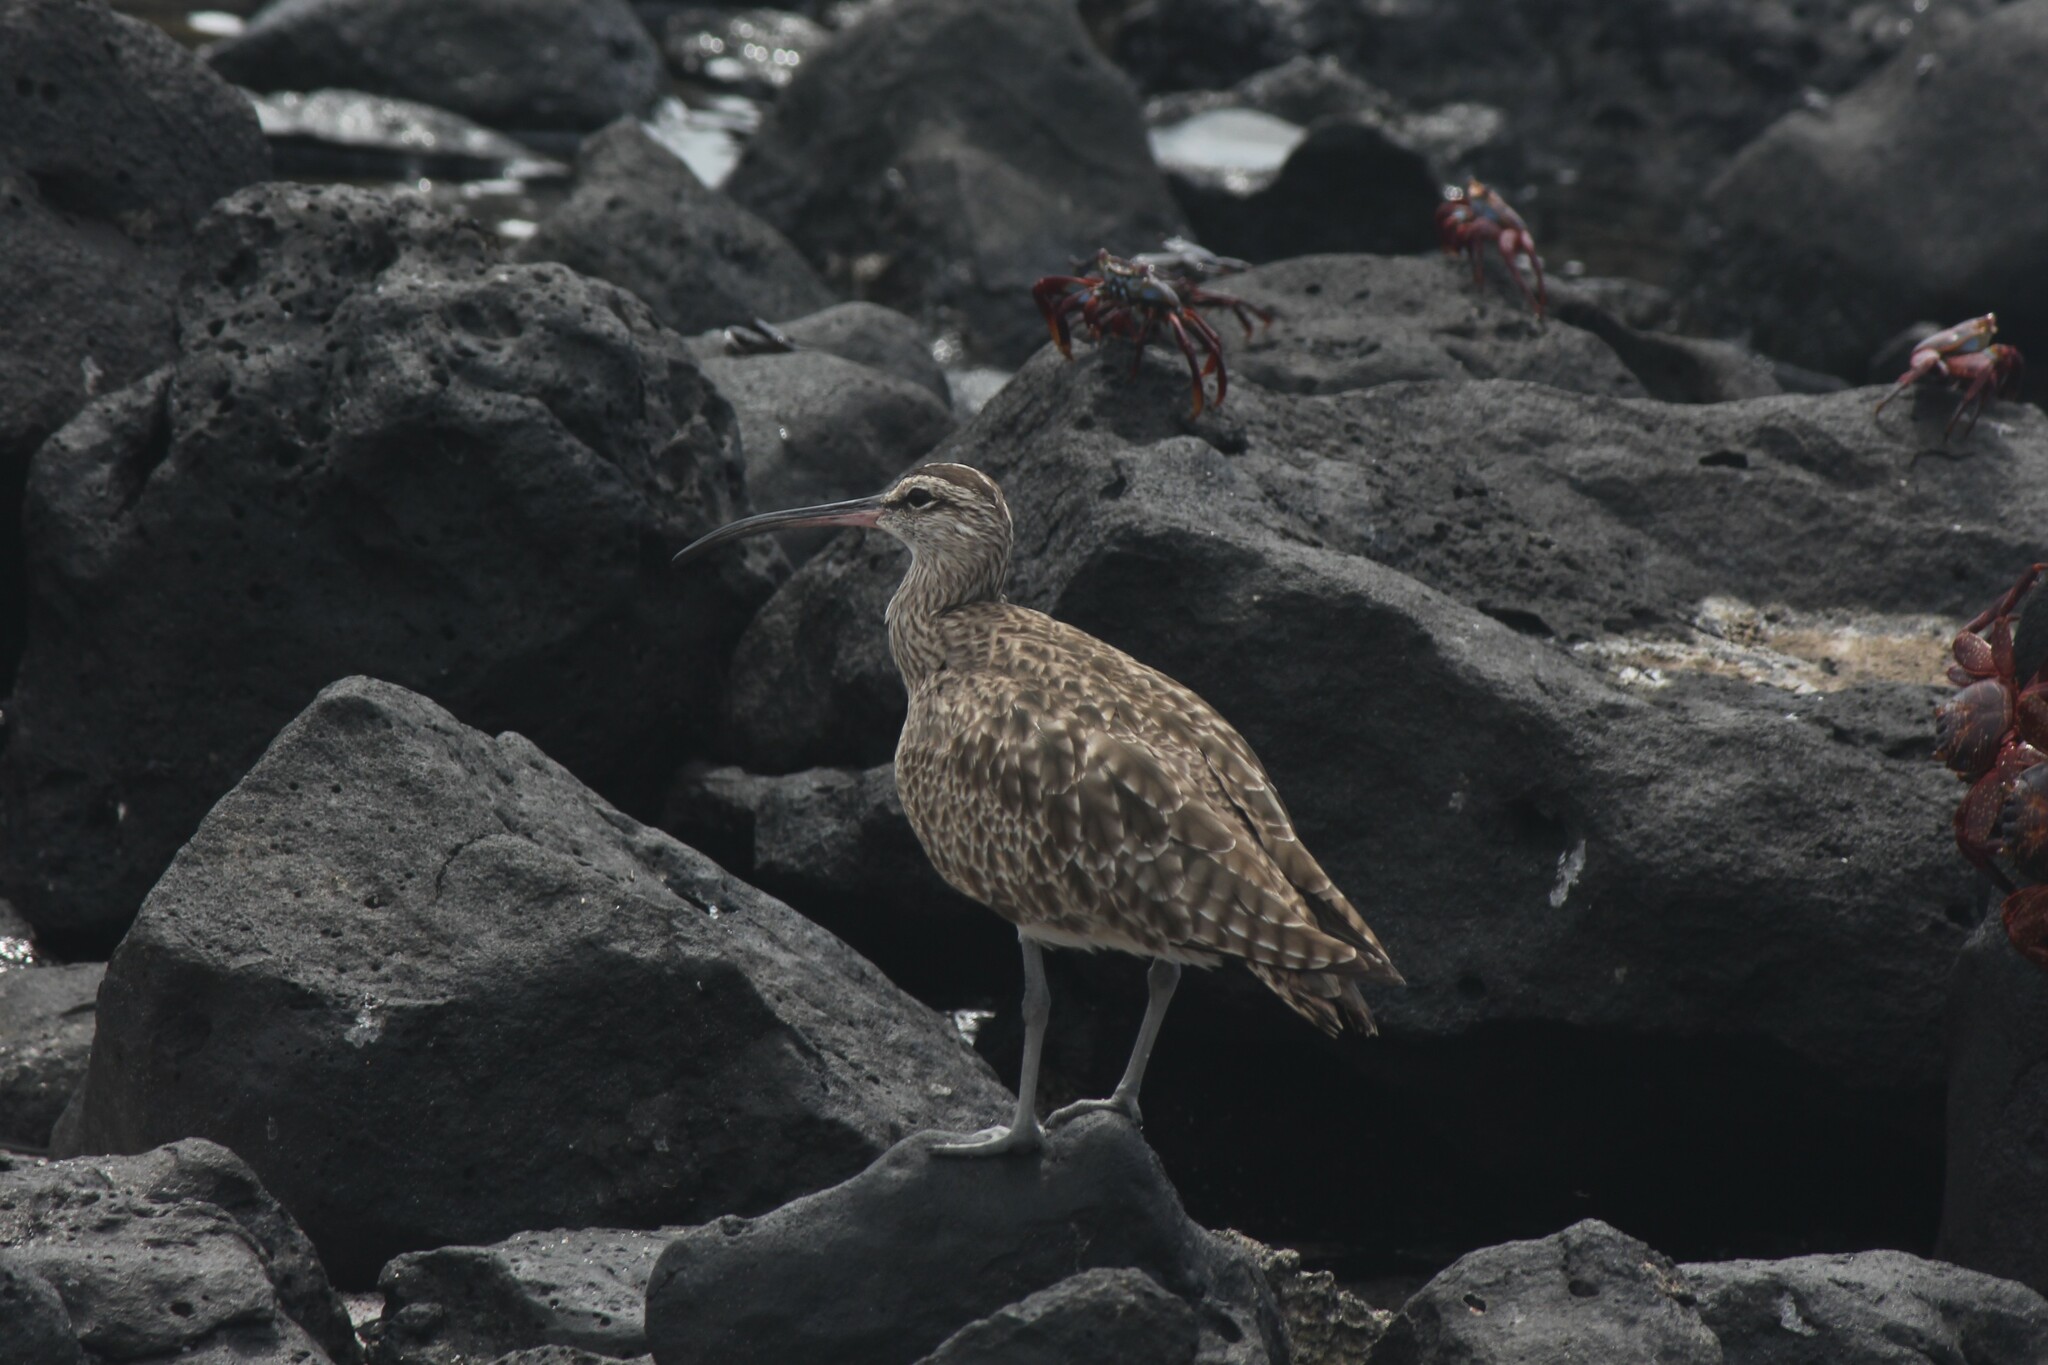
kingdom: Animalia
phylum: Chordata
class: Aves
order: Charadriiformes
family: Scolopacidae
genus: Numenius
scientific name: Numenius phaeopus
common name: Whimbrel
